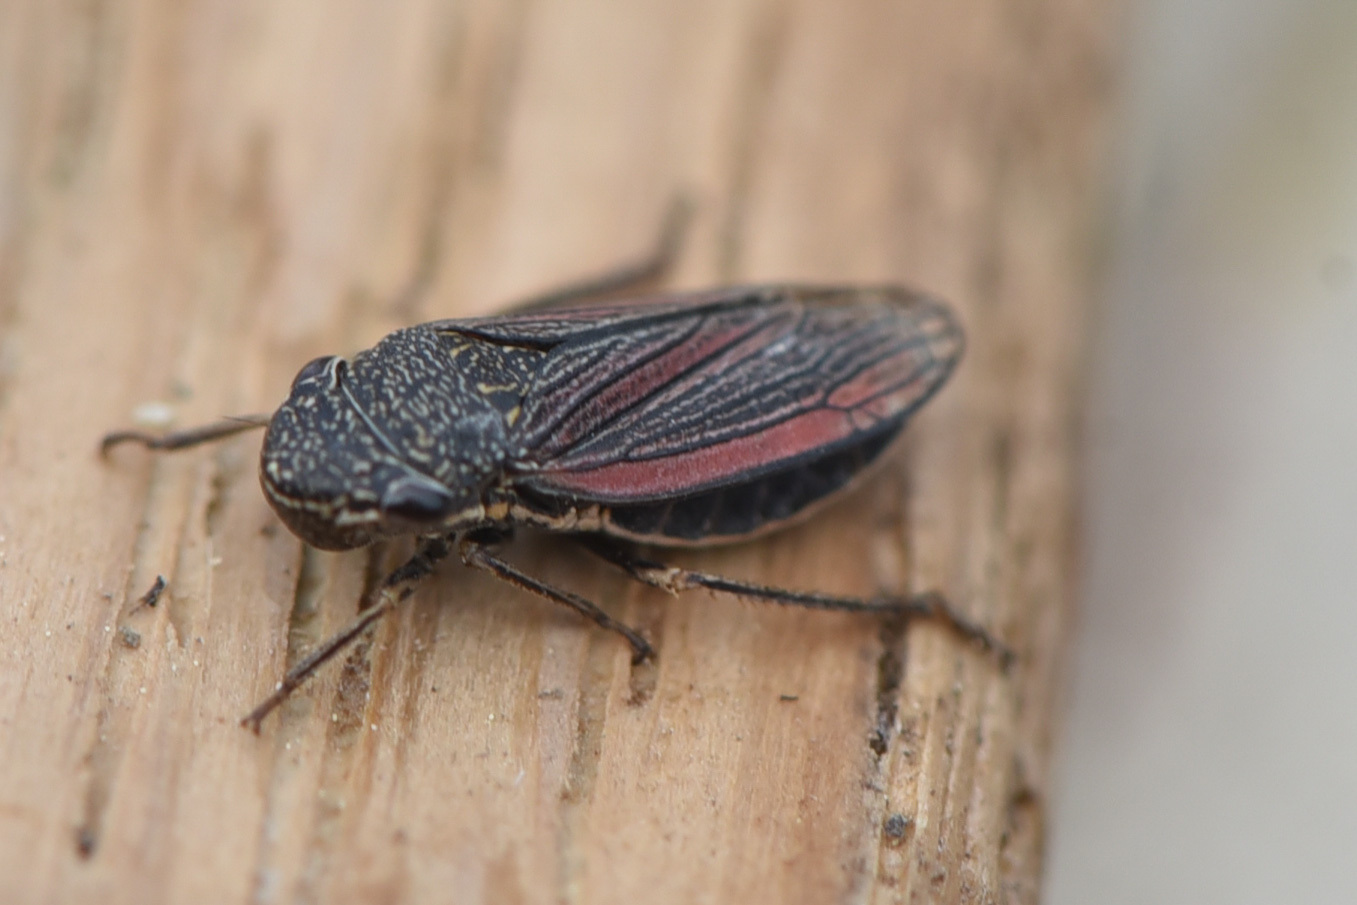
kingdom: Animalia
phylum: Arthropoda
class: Insecta
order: Hemiptera
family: Cicadellidae
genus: Cuerna
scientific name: Cuerna striata
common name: Striped leafhopper
